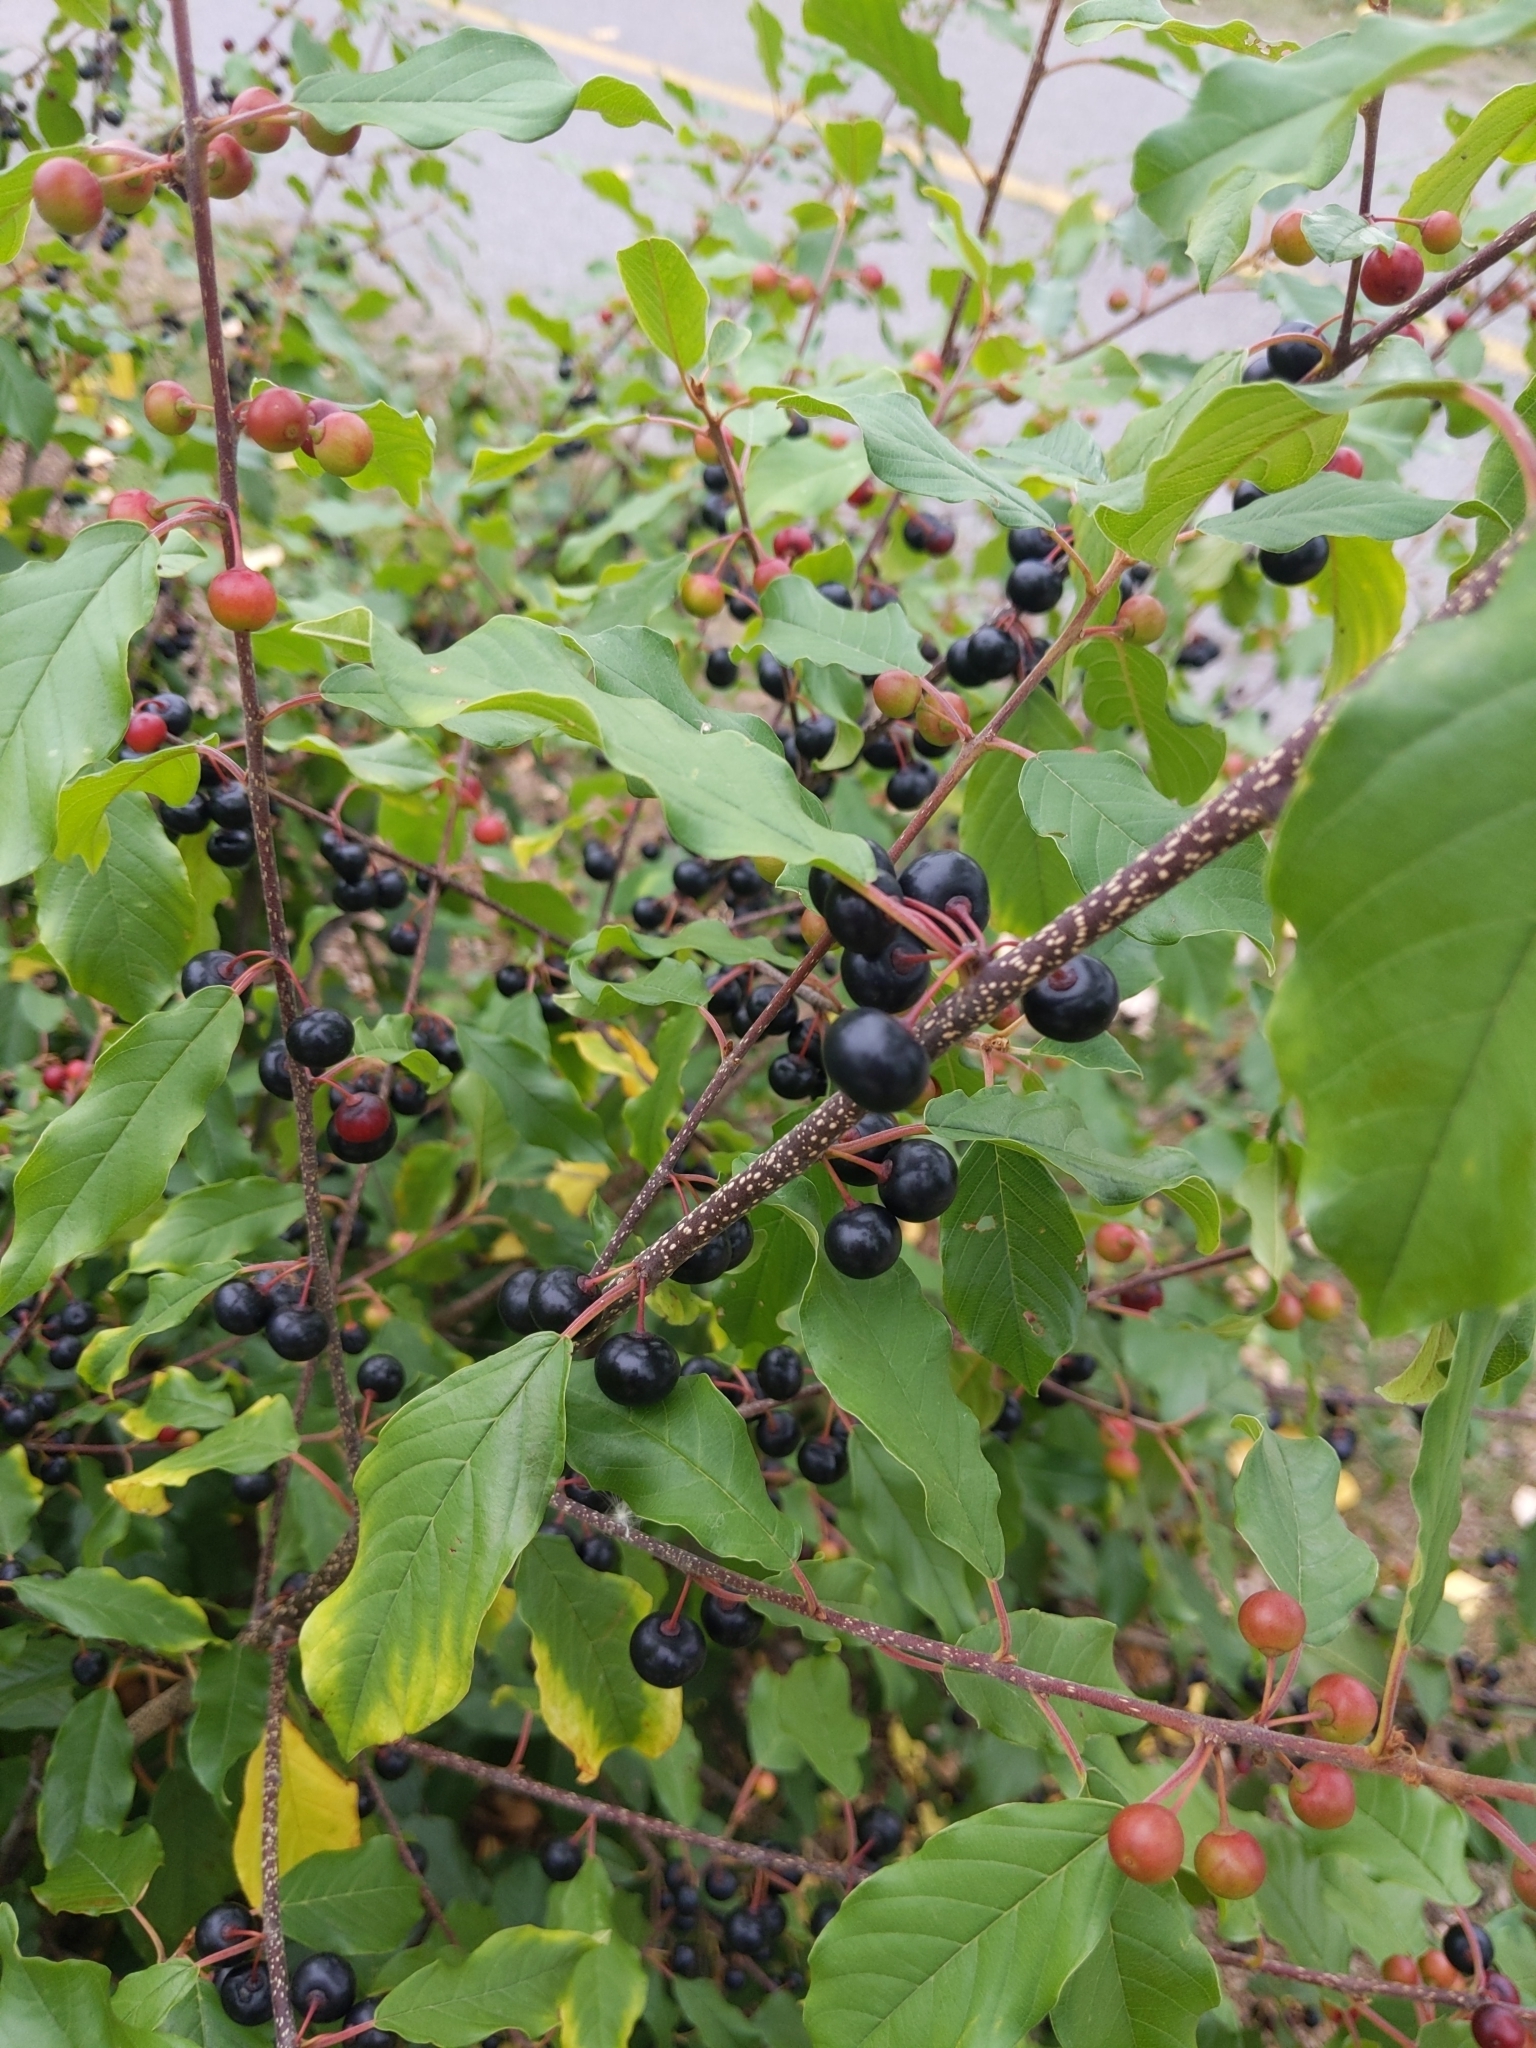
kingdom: Plantae
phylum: Tracheophyta
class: Magnoliopsida
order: Rosales
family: Rhamnaceae
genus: Frangula
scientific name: Frangula alnus
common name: Alder buckthorn
